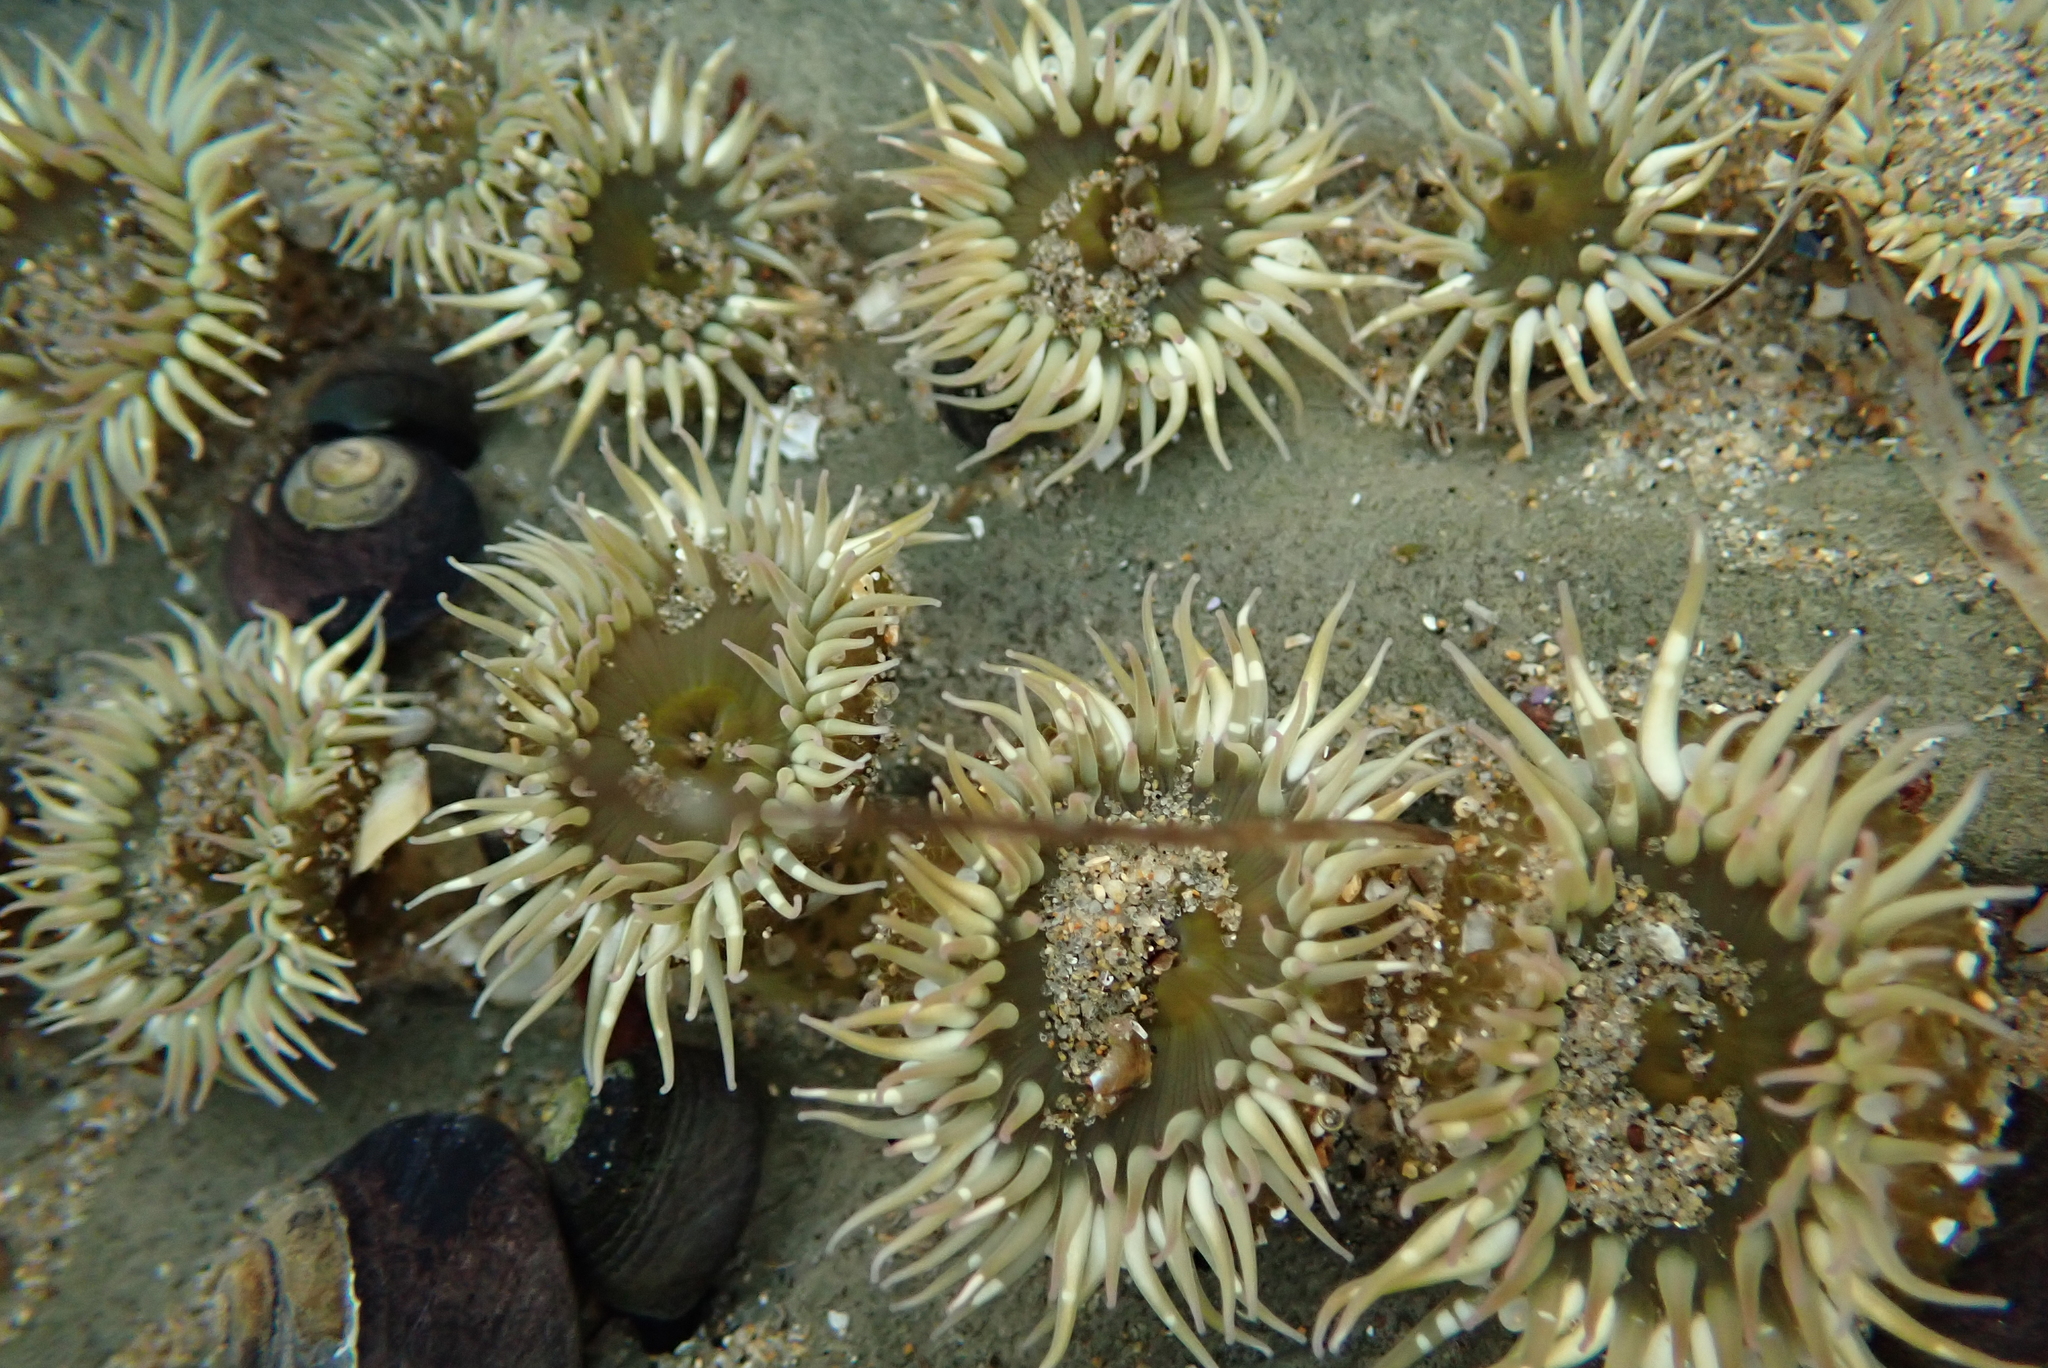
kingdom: Animalia
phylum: Cnidaria
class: Anthozoa
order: Actiniaria
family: Actiniidae
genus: Anthopleura
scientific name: Anthopleura elegantissima
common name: Clonal anemone
